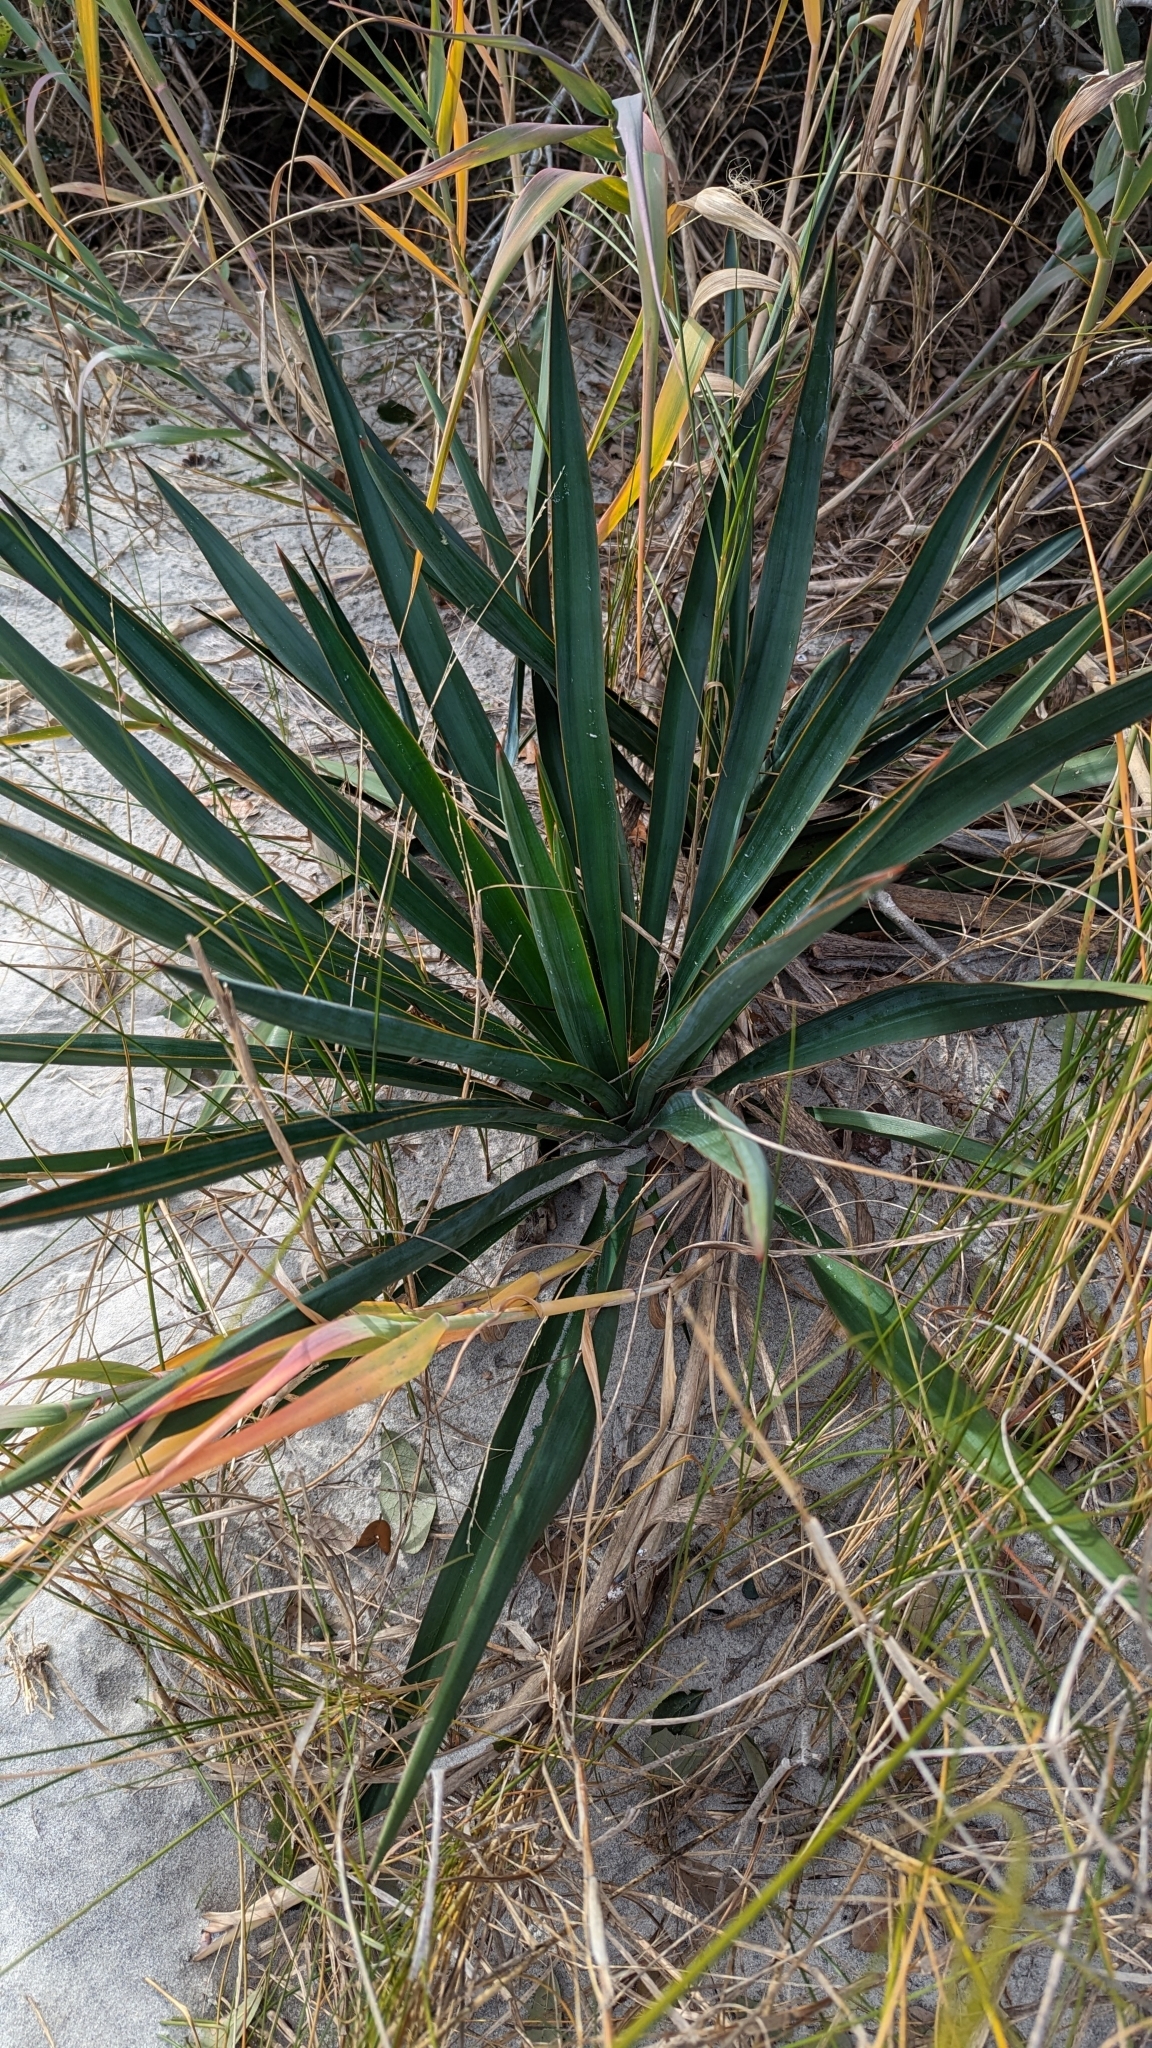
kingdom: Plantae
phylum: Tracheophyta
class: Liliopsida
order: Asparagales
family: Asparagaceae
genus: Yucca
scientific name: Yucca gloriosa
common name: Spanish-dagger
